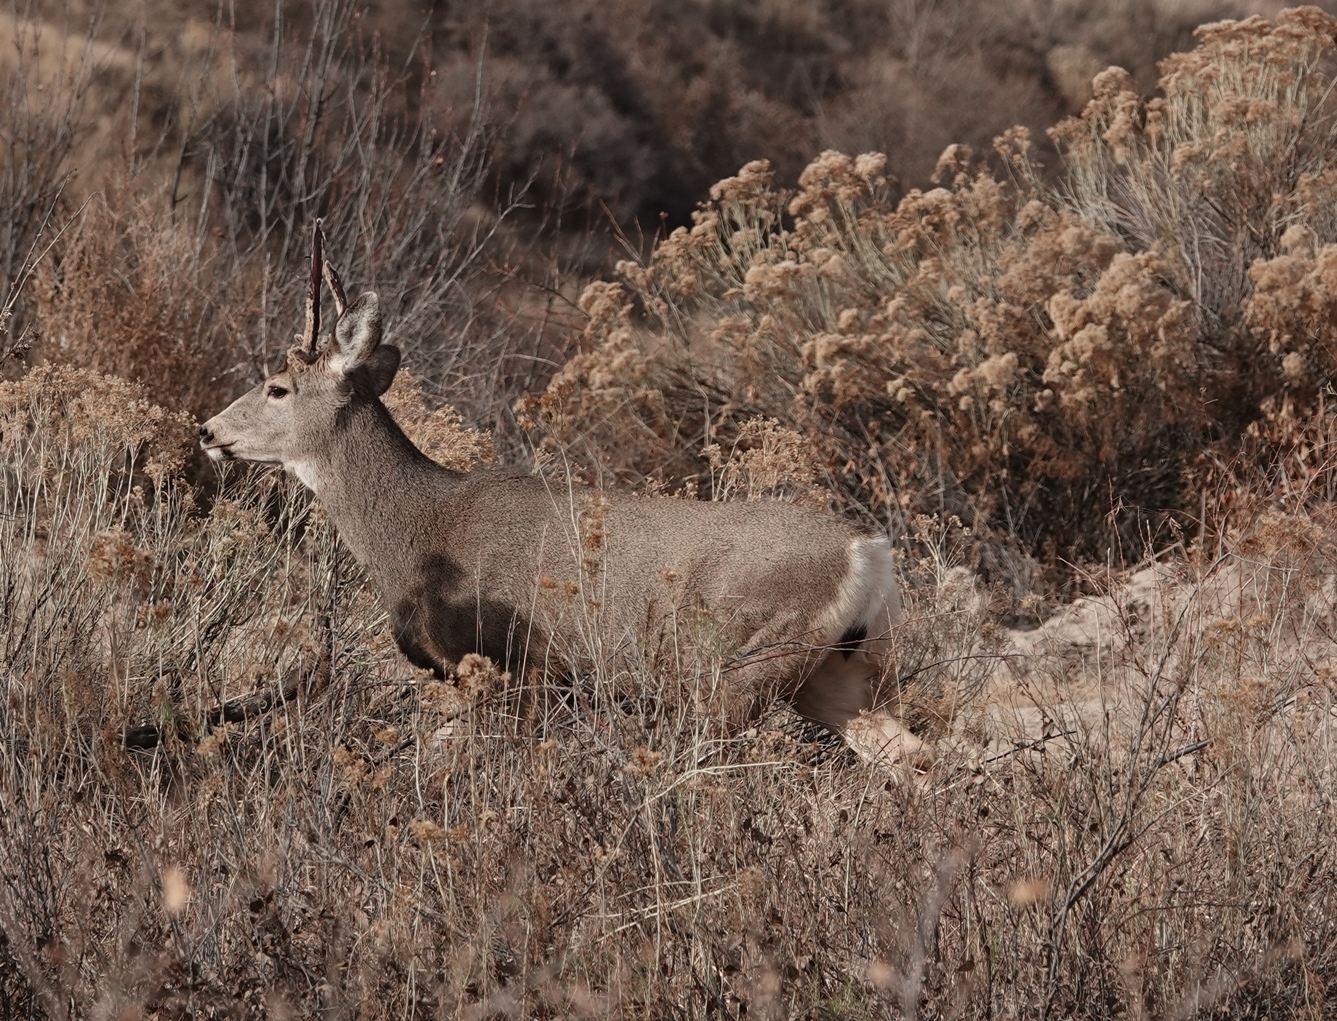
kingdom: Animalia
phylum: Chordata
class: Mammalia
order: Artiodactyla
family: Cervidae
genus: Odocoileus
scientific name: Odocoileus hemionus
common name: Mule deer
